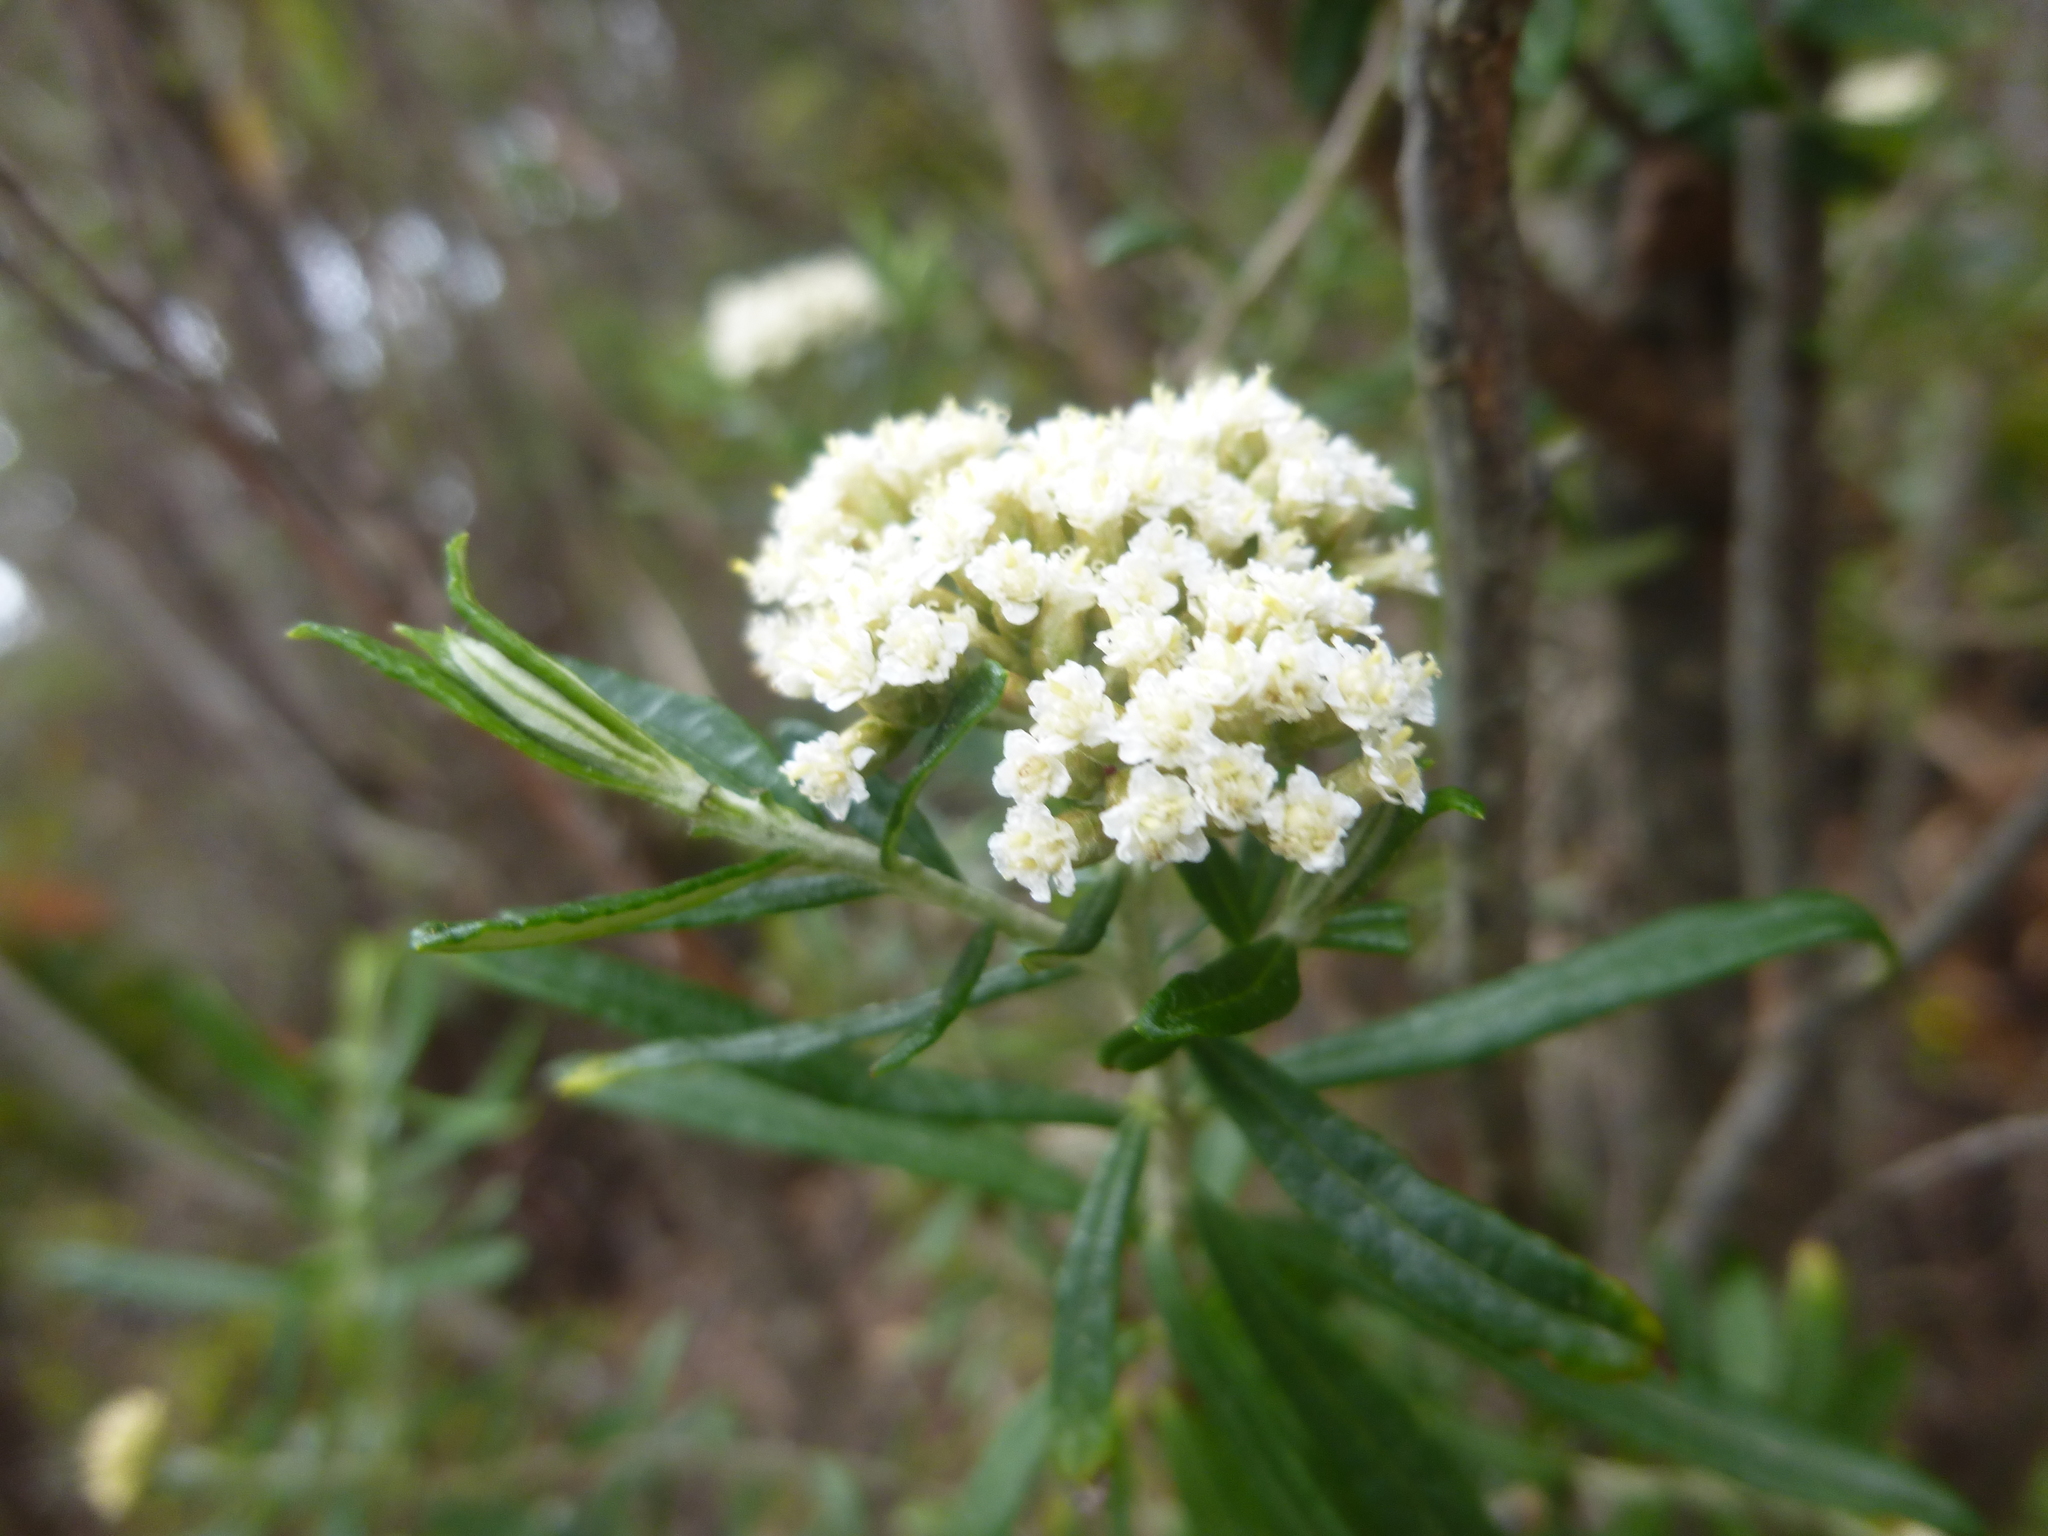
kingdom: Plantae
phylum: Tracheophyta
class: Magnoliopsida
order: Asterales
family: Asteraceae
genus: Ozothamnus
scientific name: Ozothamnus ferrugineus
